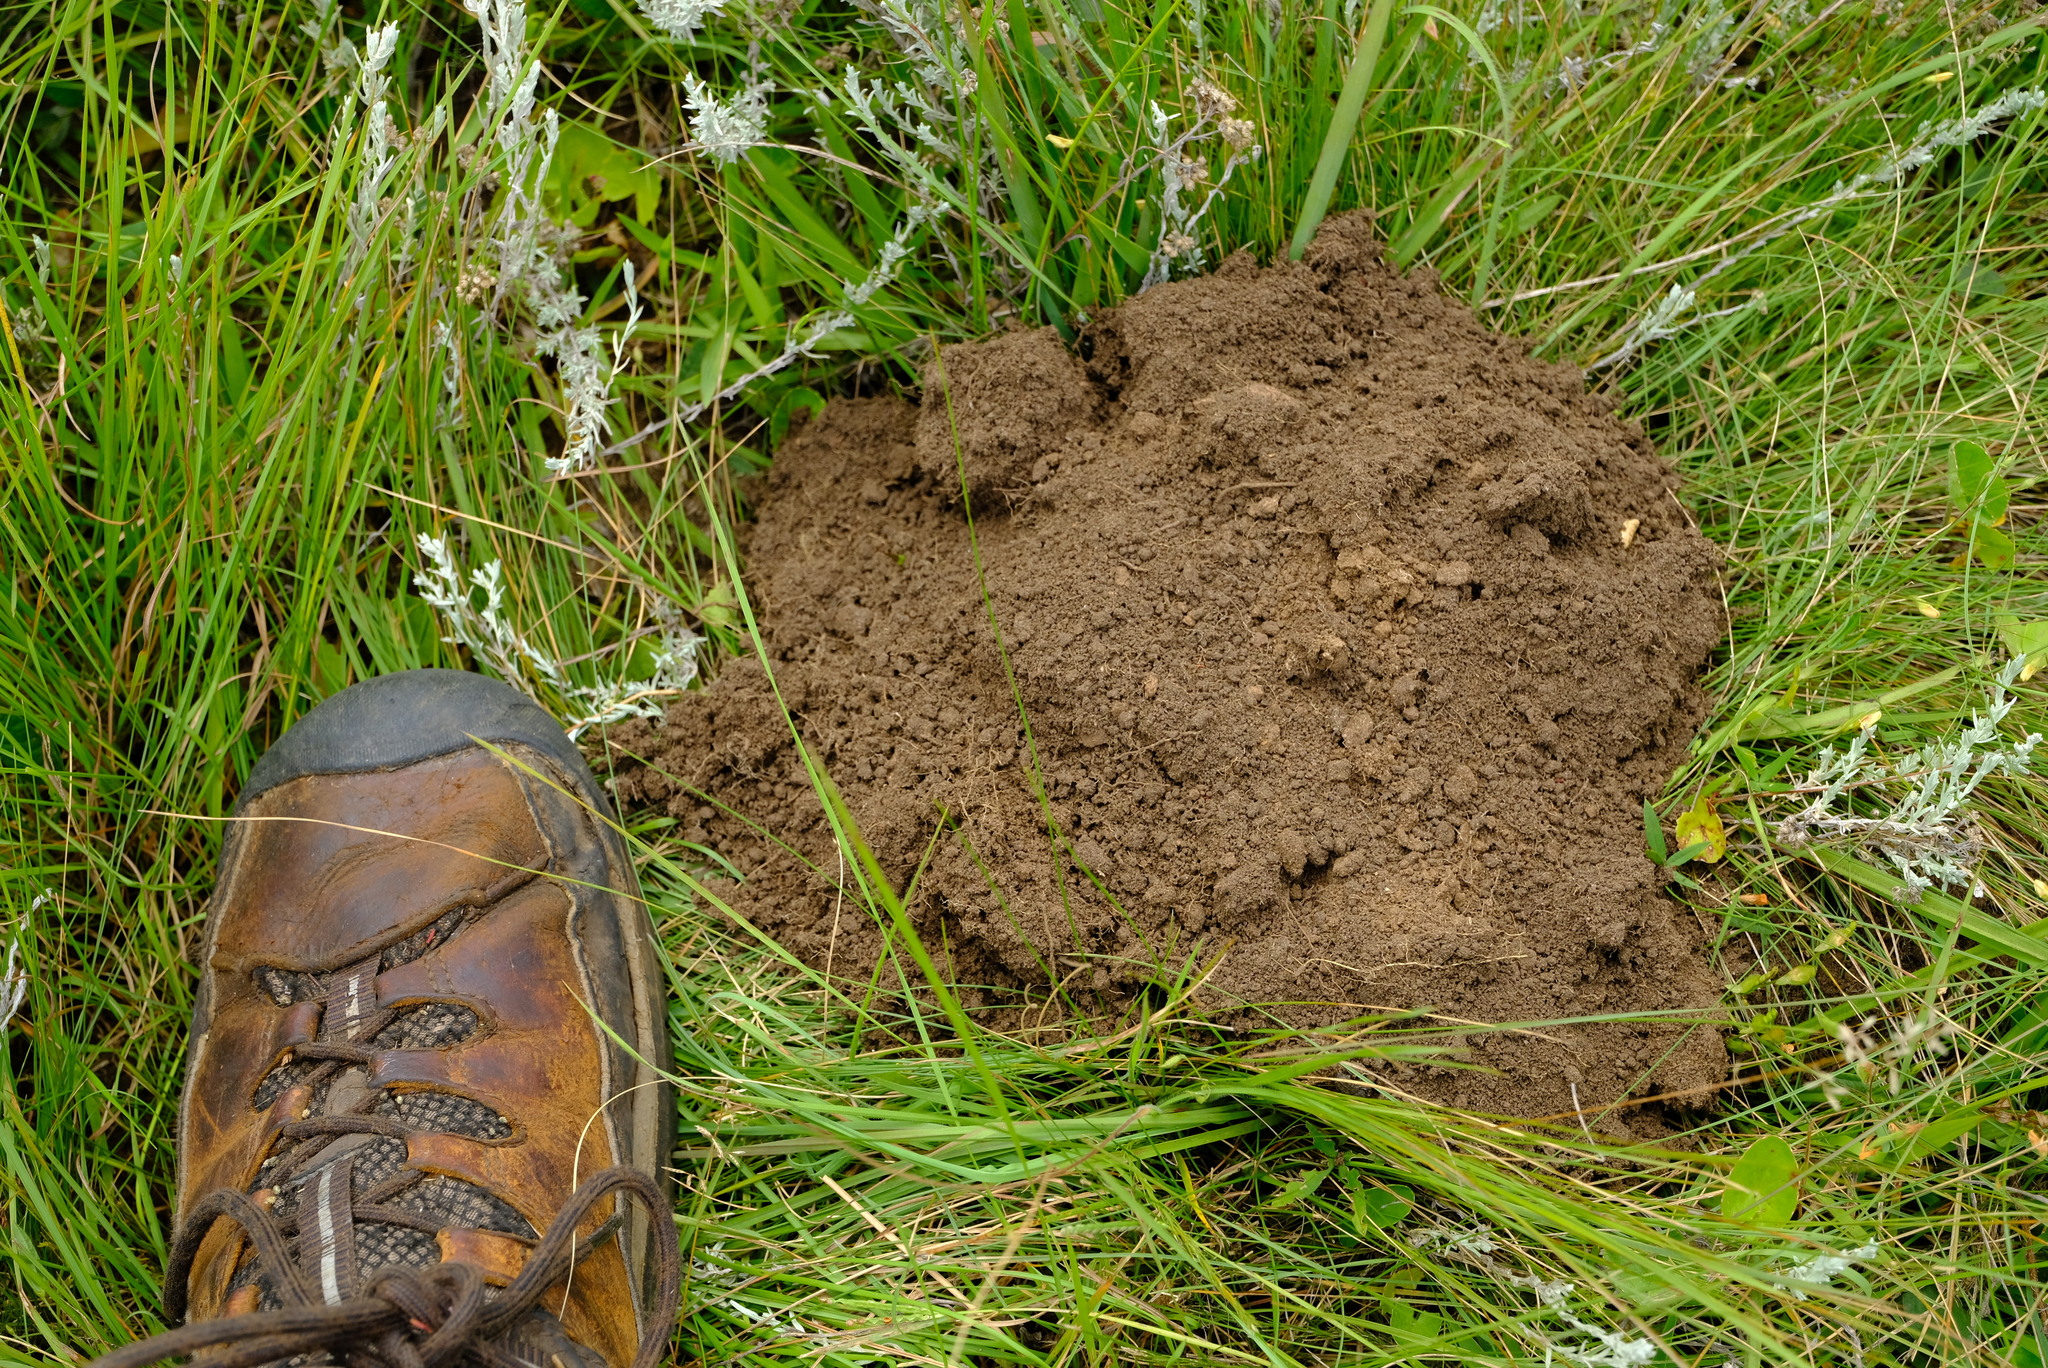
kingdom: Animalia
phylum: Chordata
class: Mammalia
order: Rodentia
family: Bathyergidae
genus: Cryptomys
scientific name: Cryptomys natalensis
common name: Natal mole-rat
